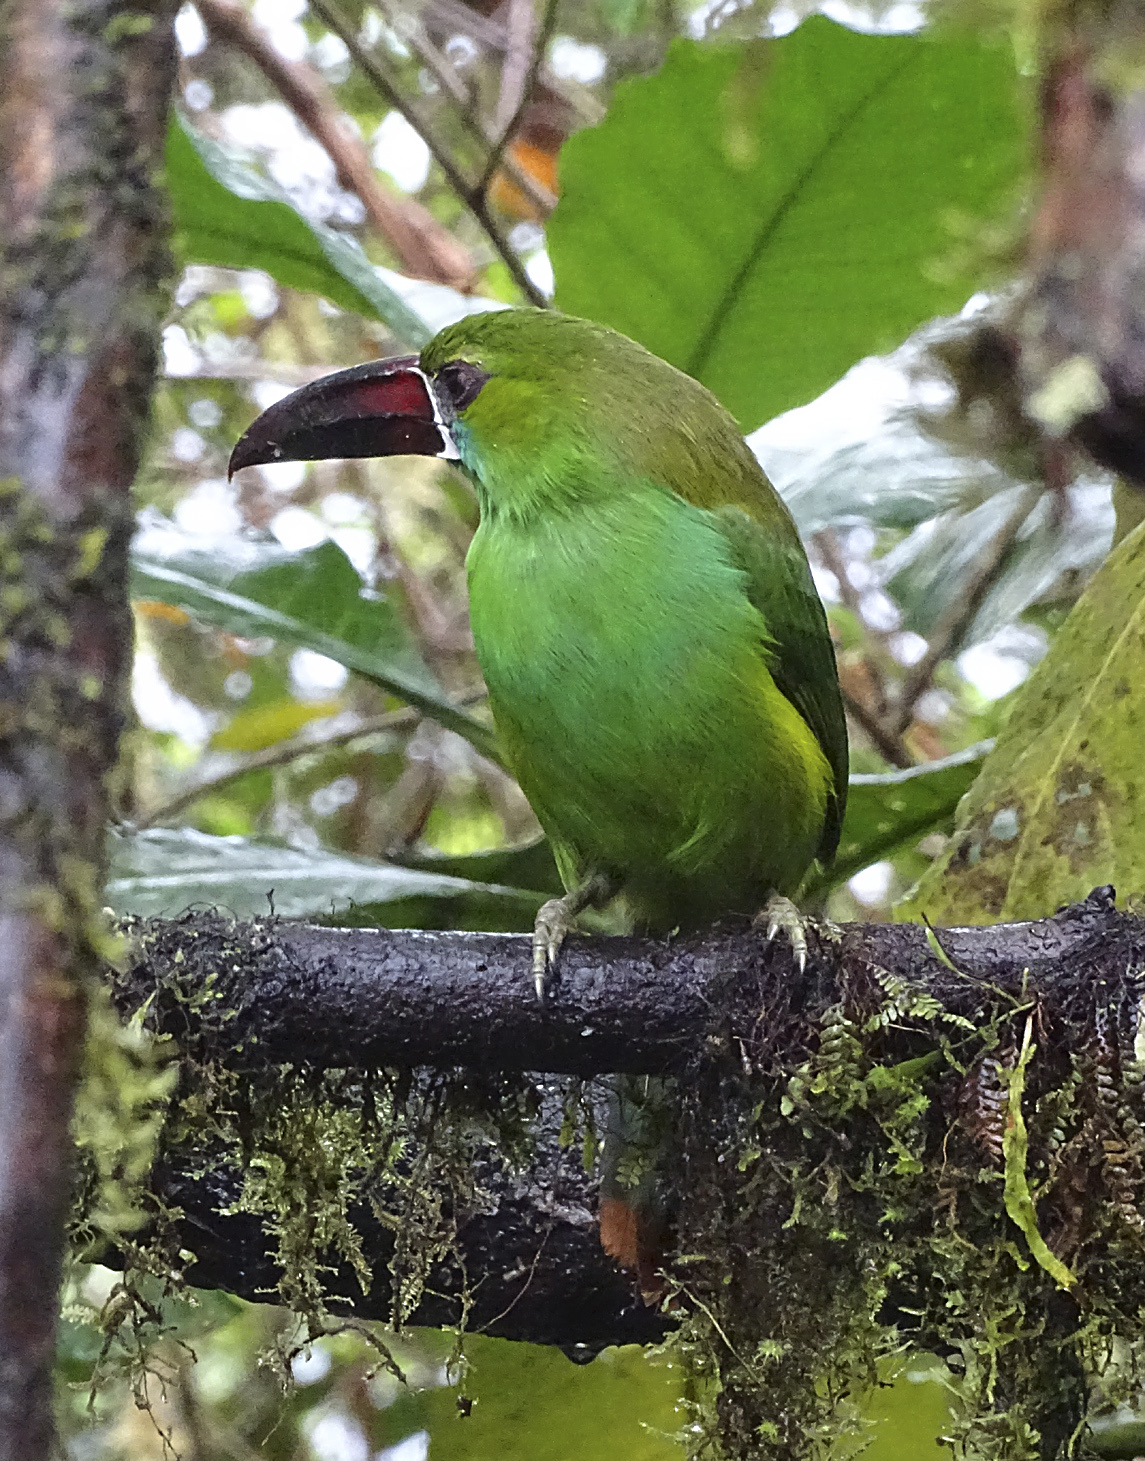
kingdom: Animalia
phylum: Chordata
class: Aves
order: Piciformes
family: Ramphastidae
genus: Aulacorhynchus
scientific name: Aulacorhynchus haematopygus
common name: Crimson-rumped toucanet
